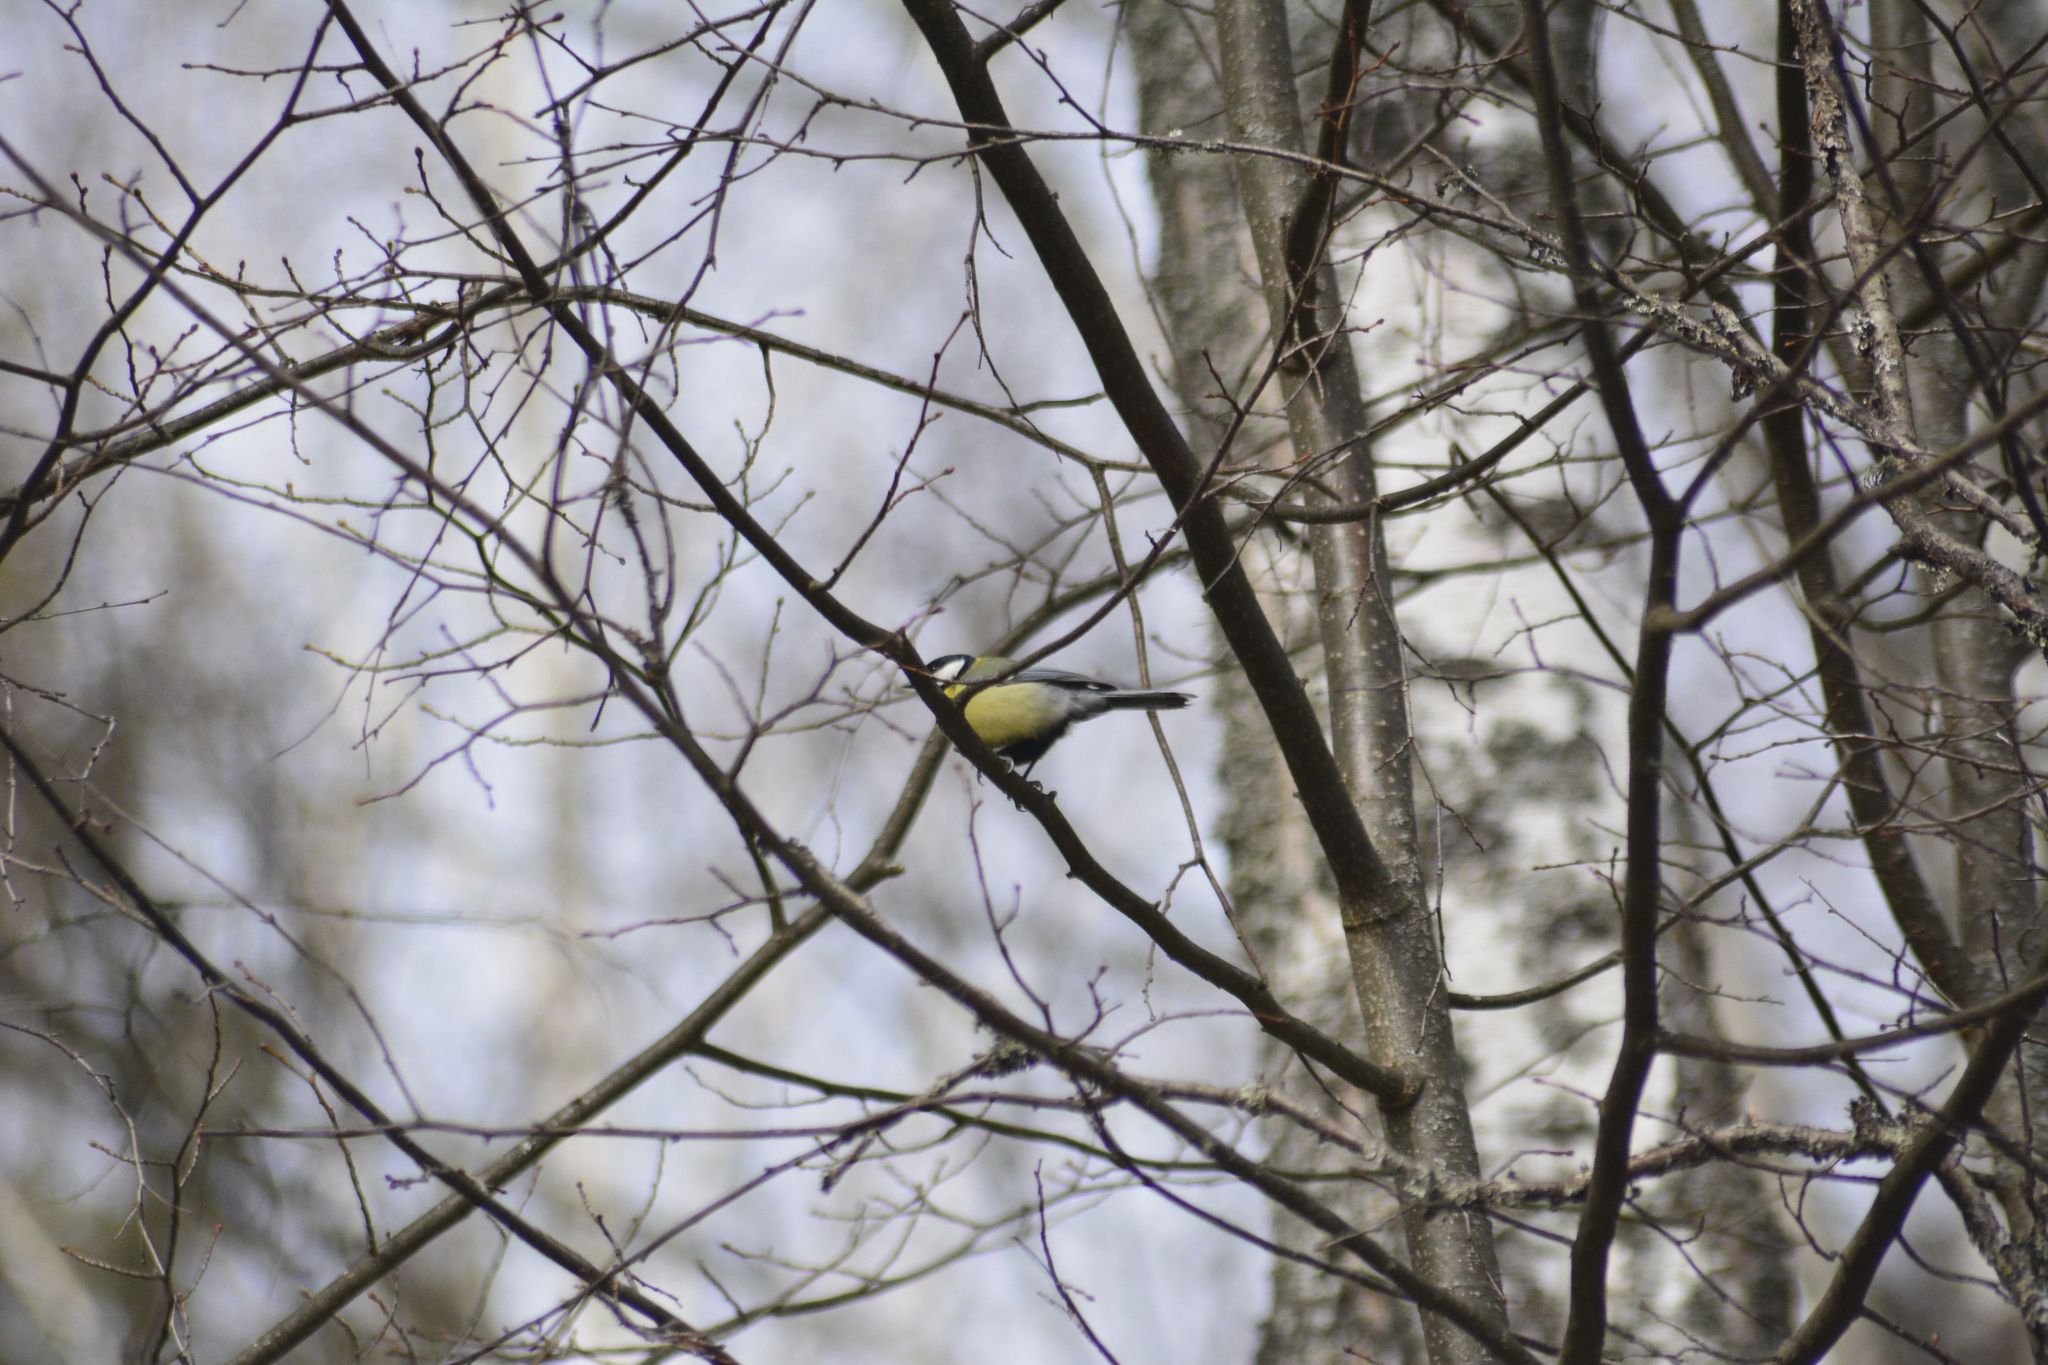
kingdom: Animalia
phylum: Chordata
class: Aves
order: Passeriformes
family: Paridae
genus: Parus
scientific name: Parus major
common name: Great tit
